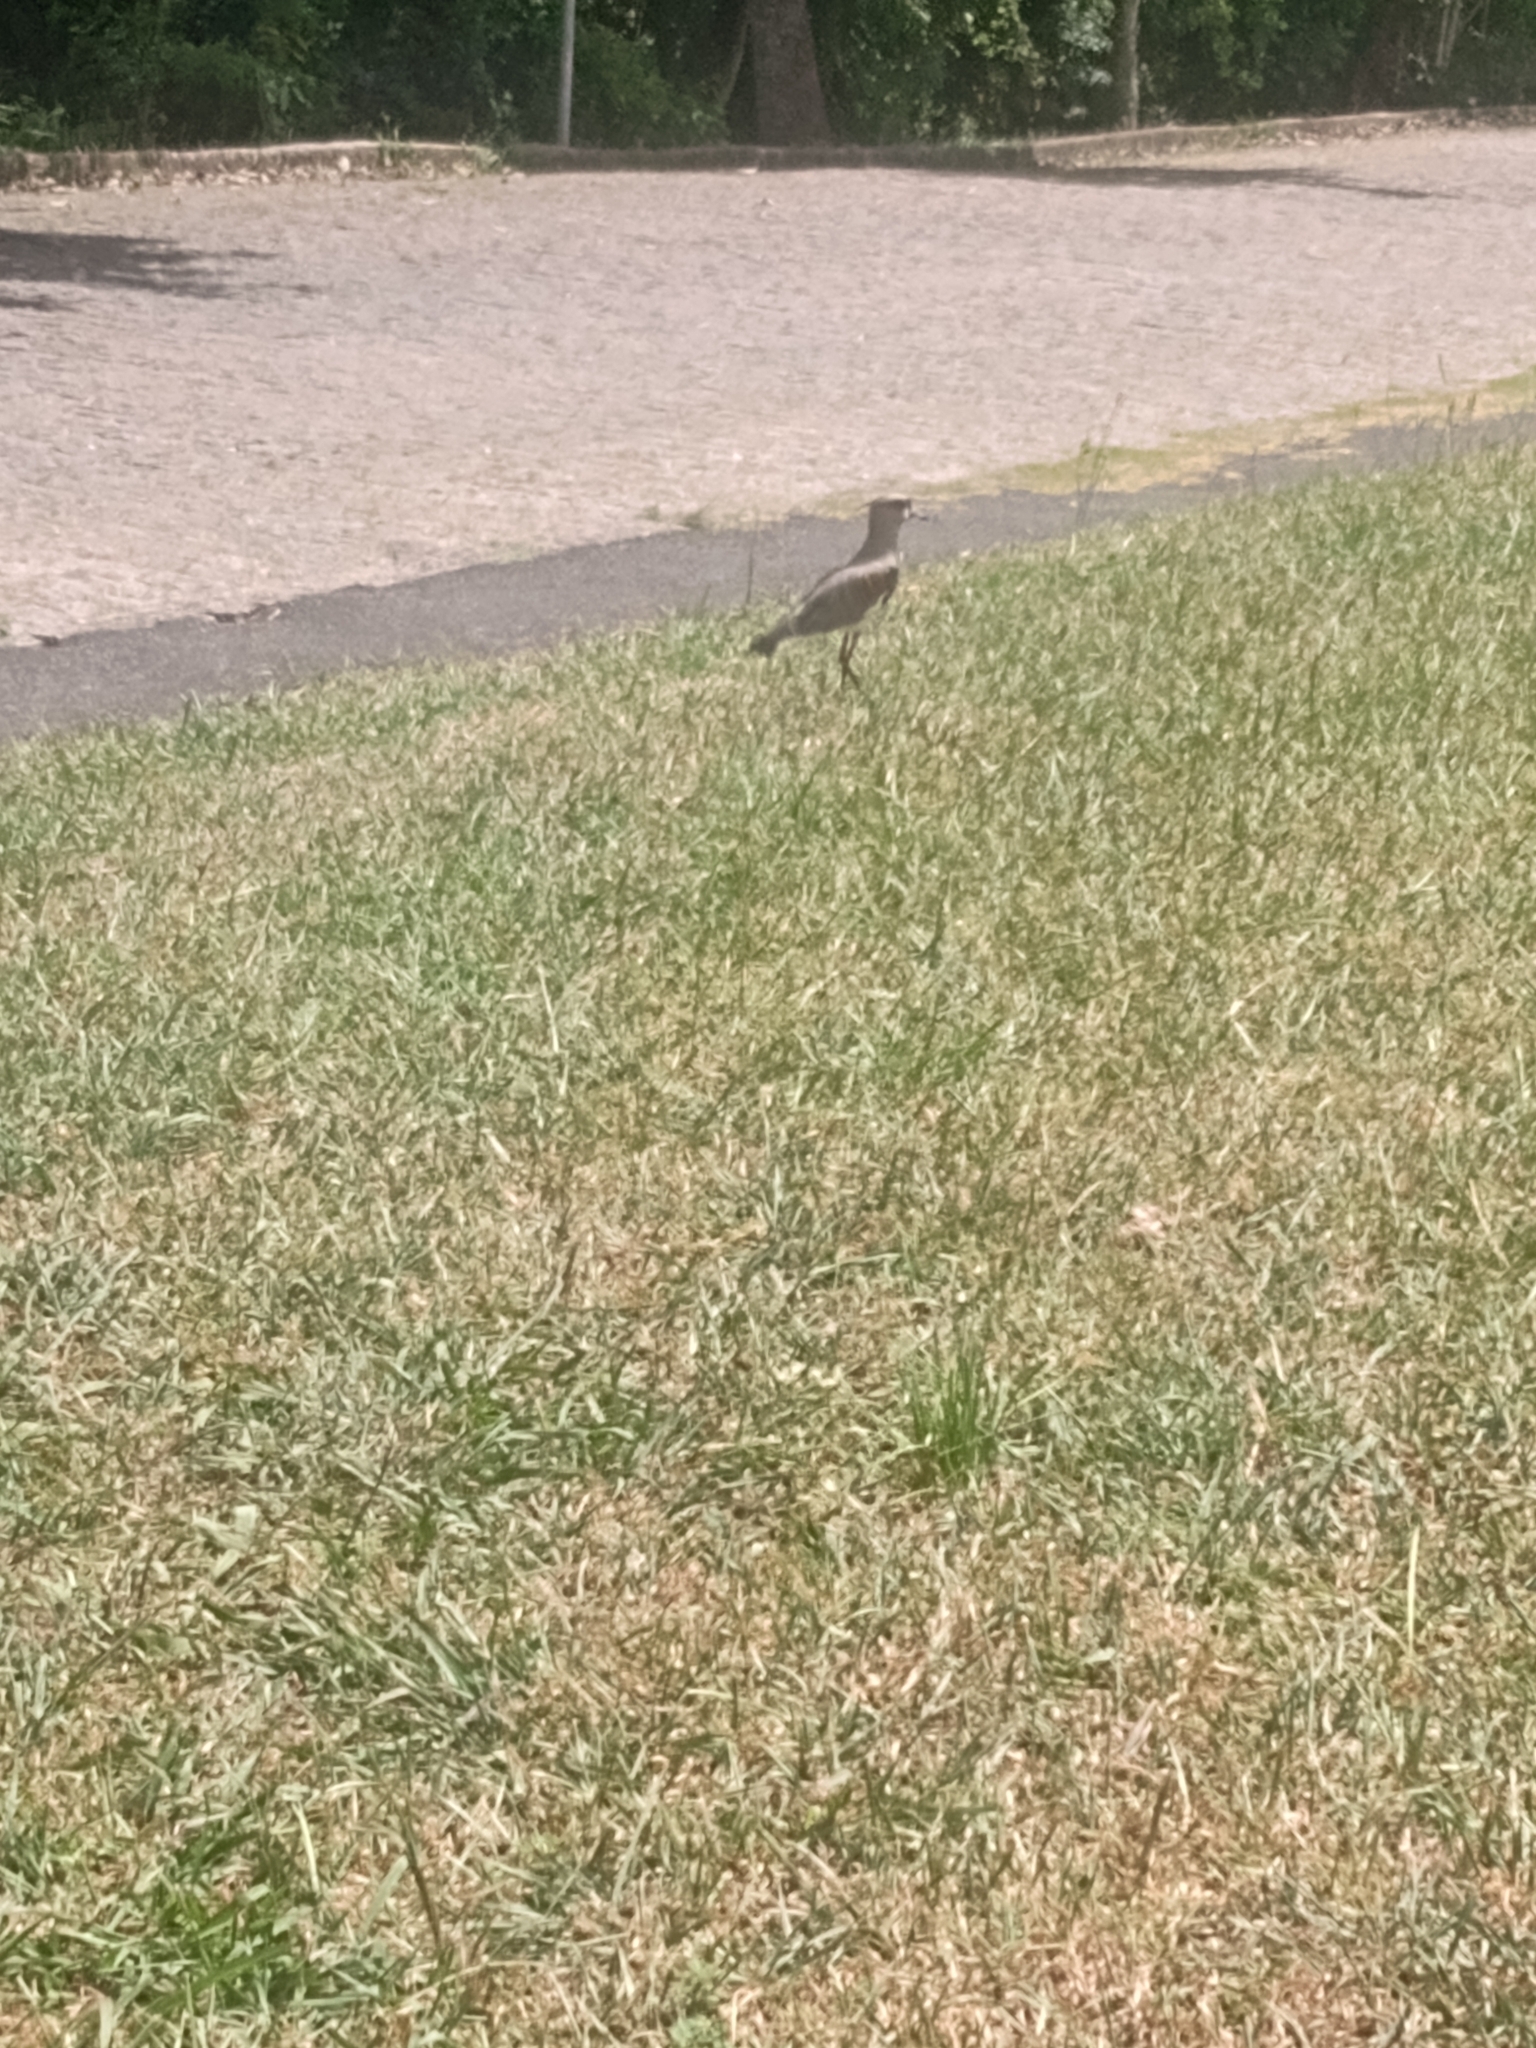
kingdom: Animalia
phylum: Chordata
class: Aves
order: Charadriiformes
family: Charadriidae
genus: Vanellus
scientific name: Vanellus chilensis
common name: Southern lapwing
